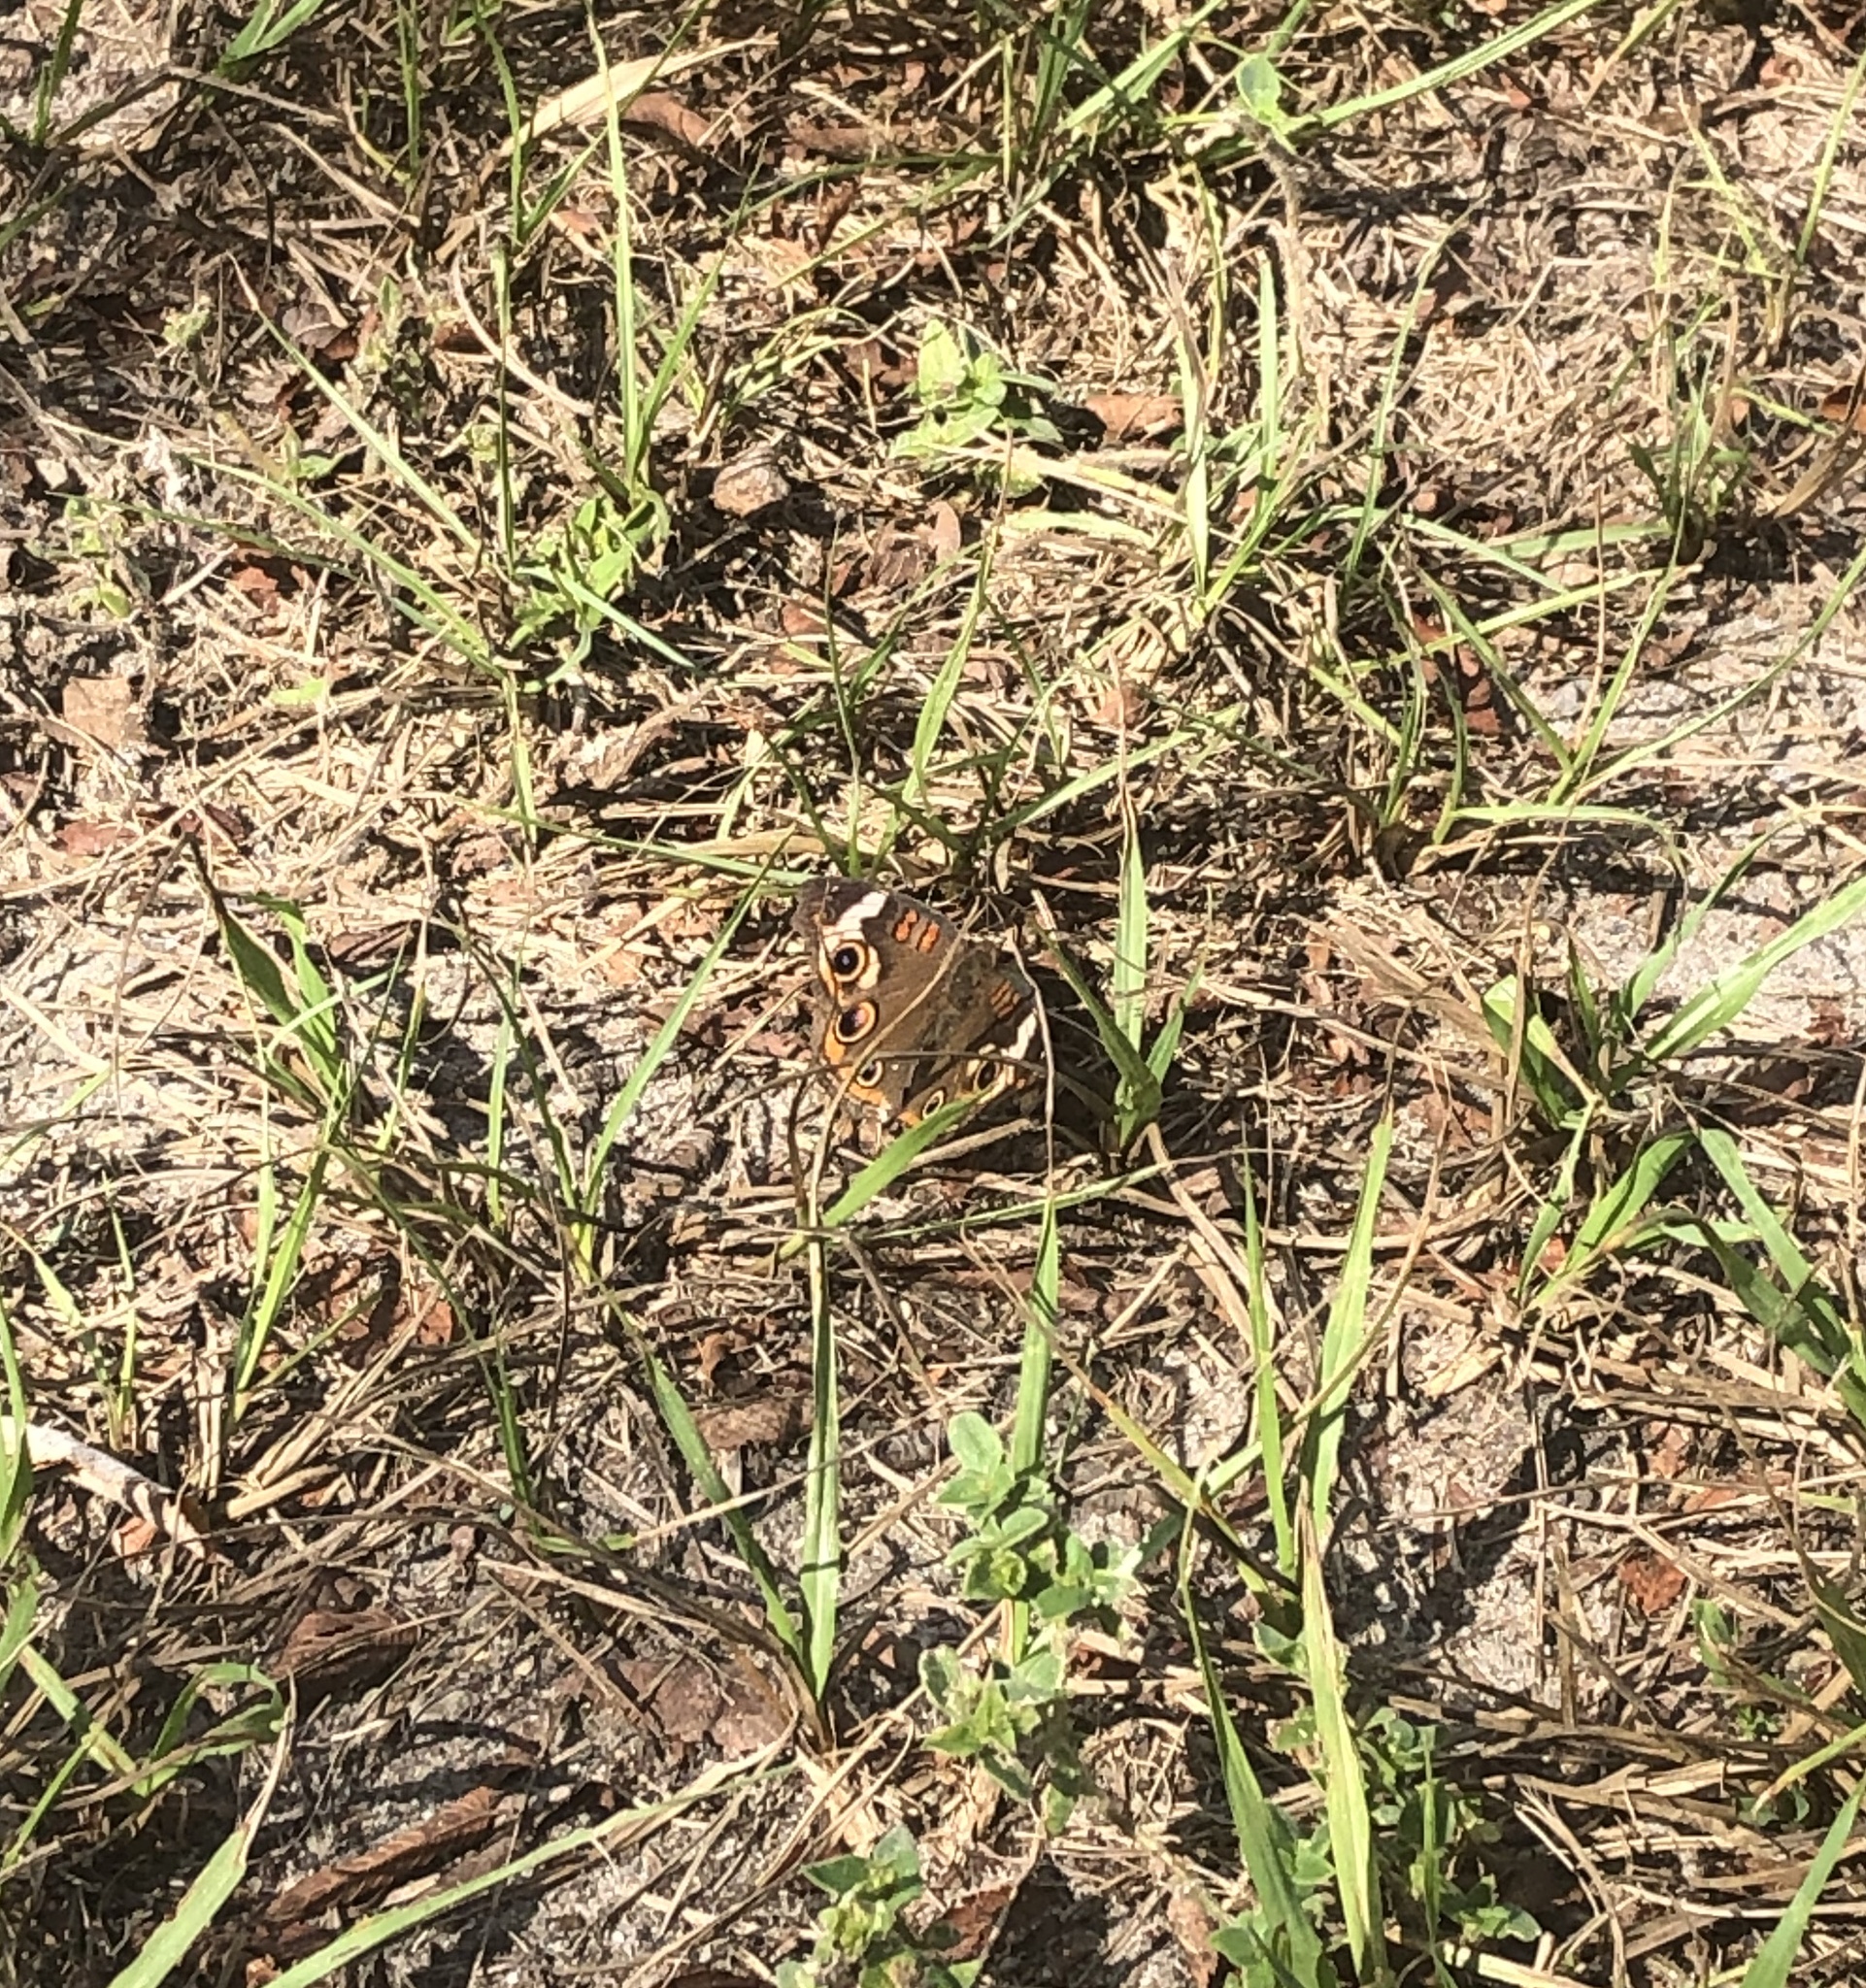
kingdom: Animalia
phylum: Arthropoda
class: Insecta
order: Lepidoptera
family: Nymphalidae
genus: Junonia
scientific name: Junonia coenia
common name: Common buckeye
